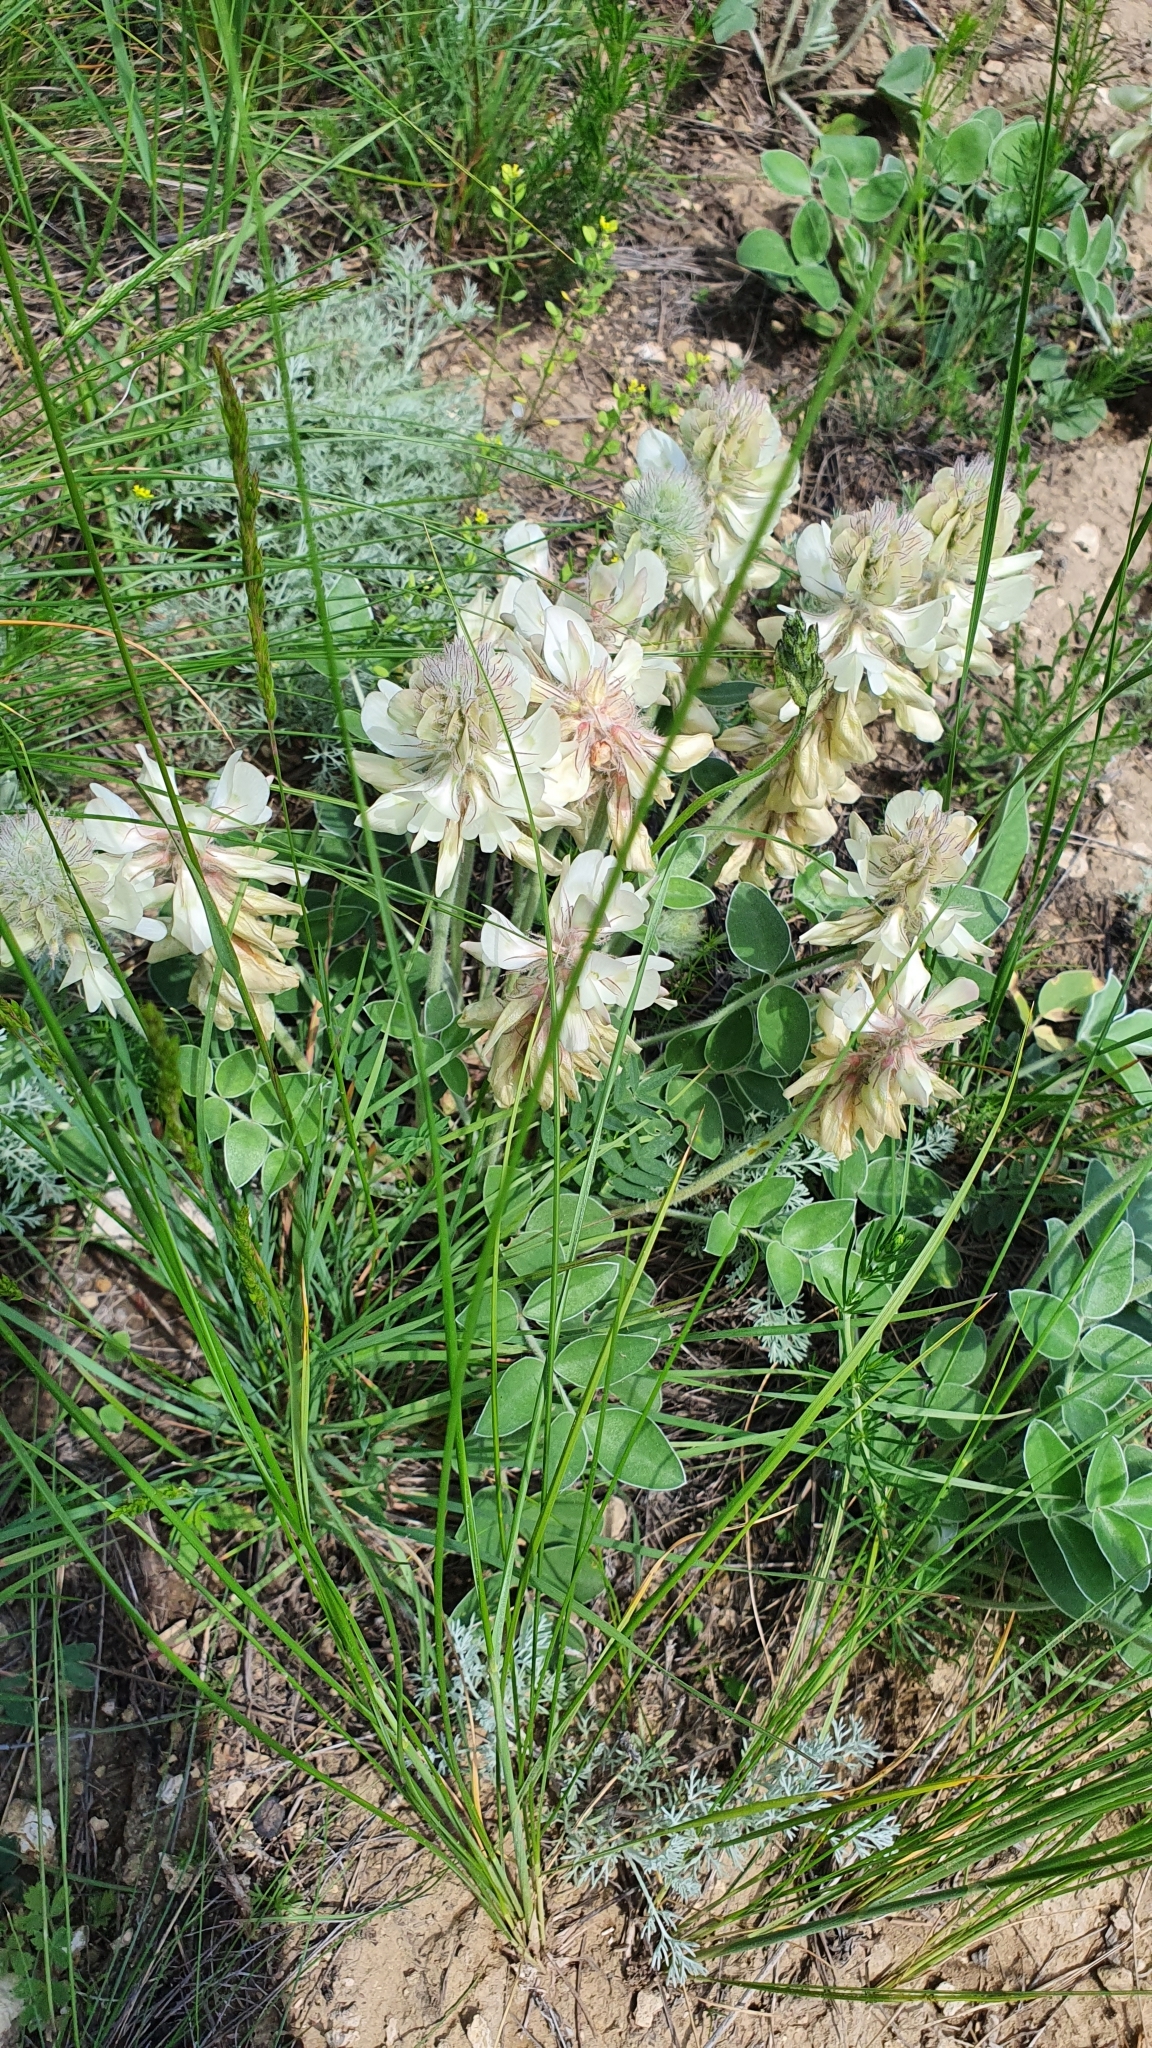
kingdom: Plantae
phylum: Tracheophyta
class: Magnoliopsida
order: Fabales
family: Fabaceae
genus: Hedysarum
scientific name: Hedysarum grandiflorum
